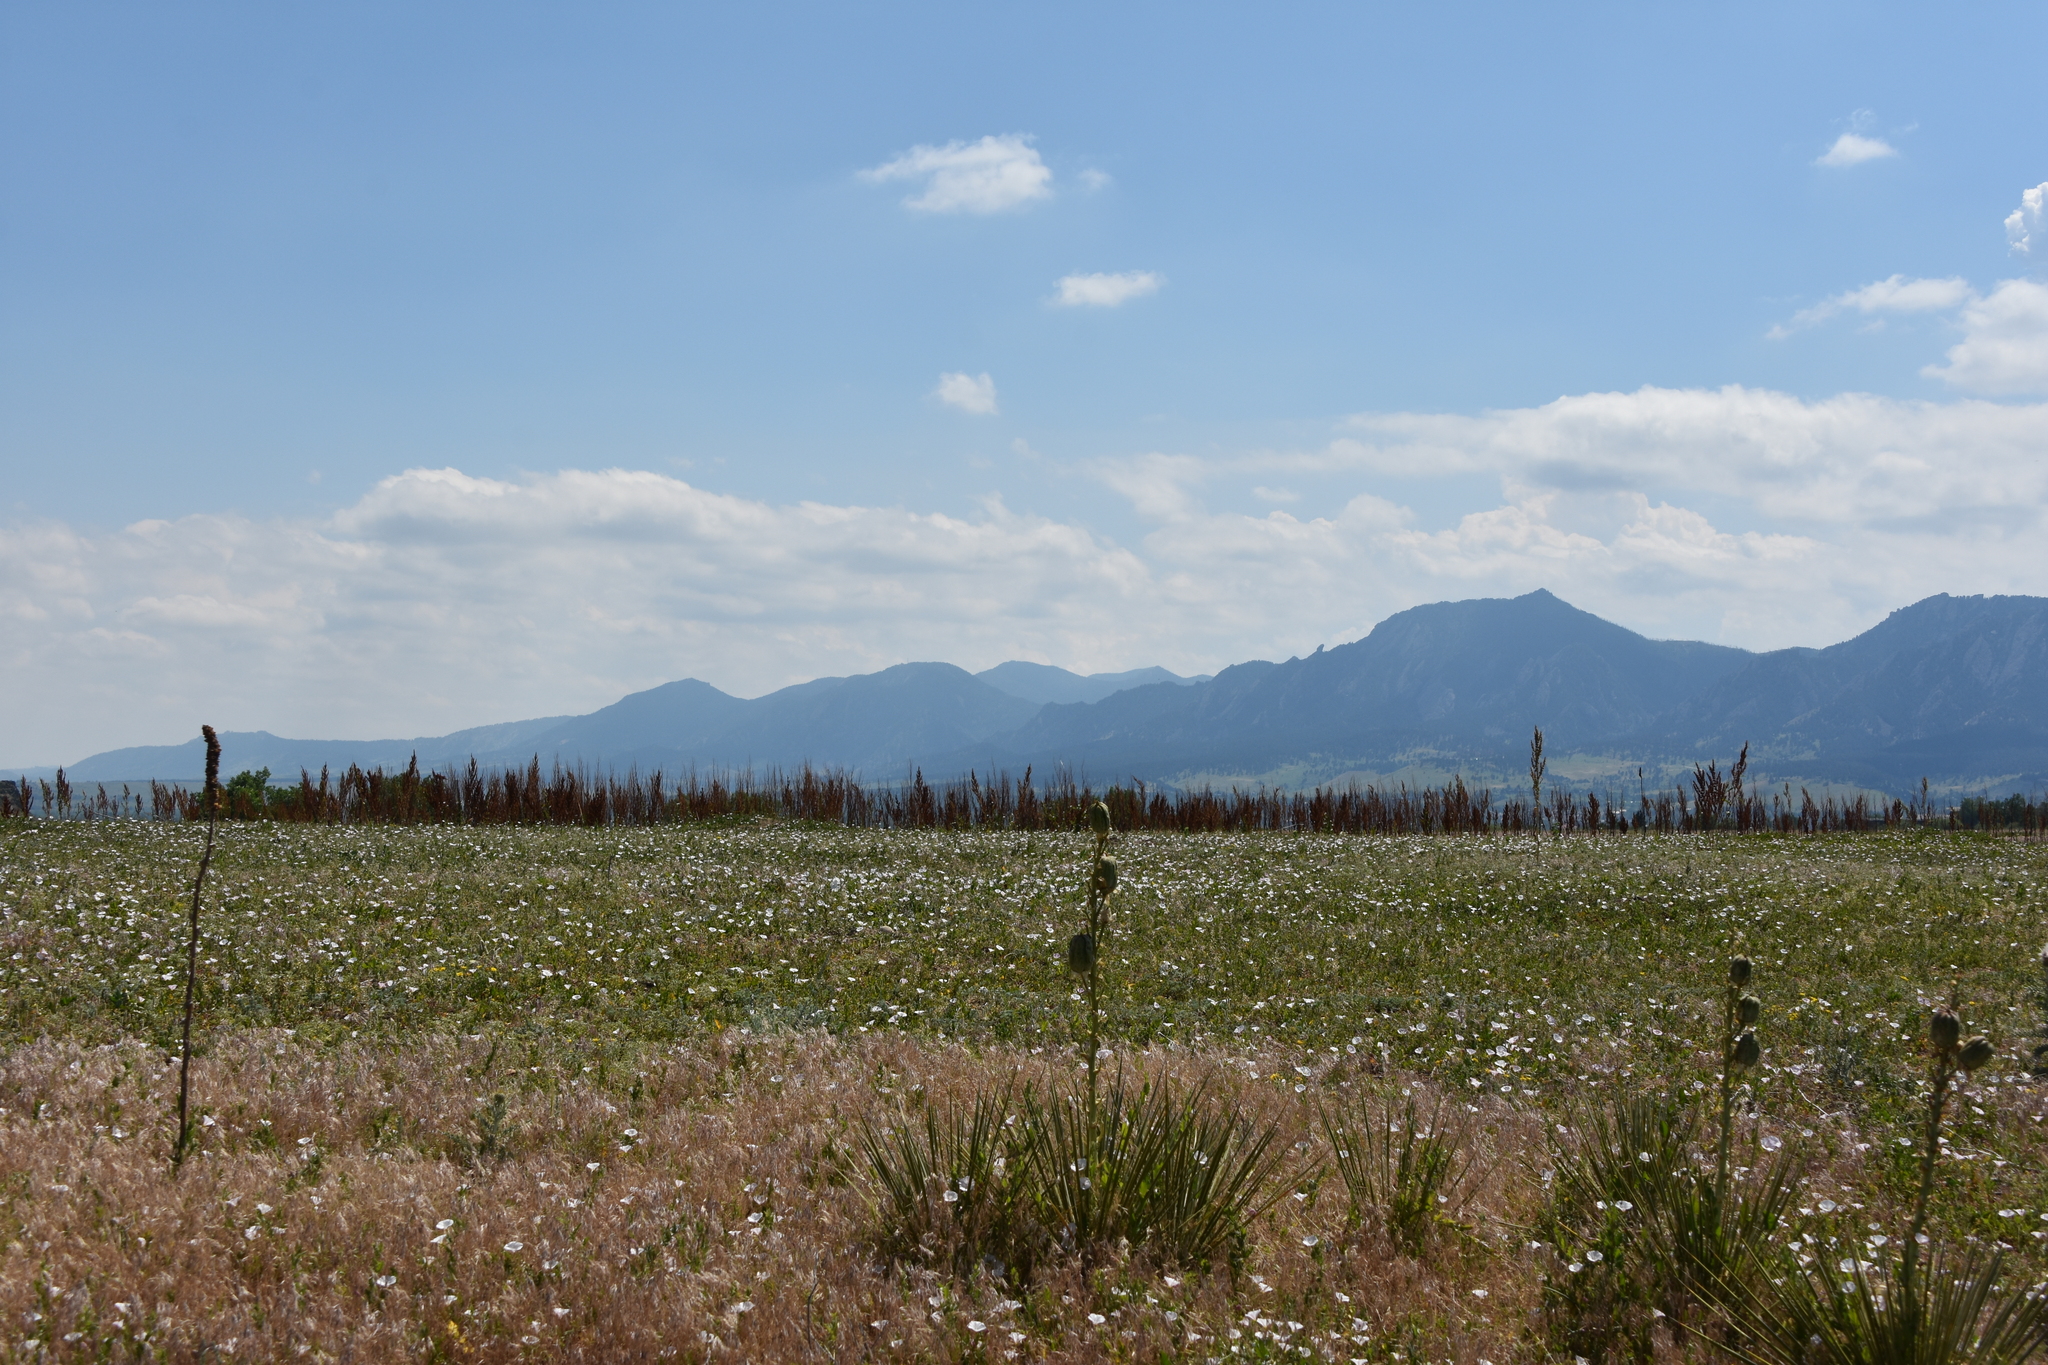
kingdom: Plantae
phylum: Tracheophyta
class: Magnoliopsida
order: Solanales
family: Convolvulaceae
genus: Convolvulus
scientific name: Convolvulus arvensis
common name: Field bindweed
